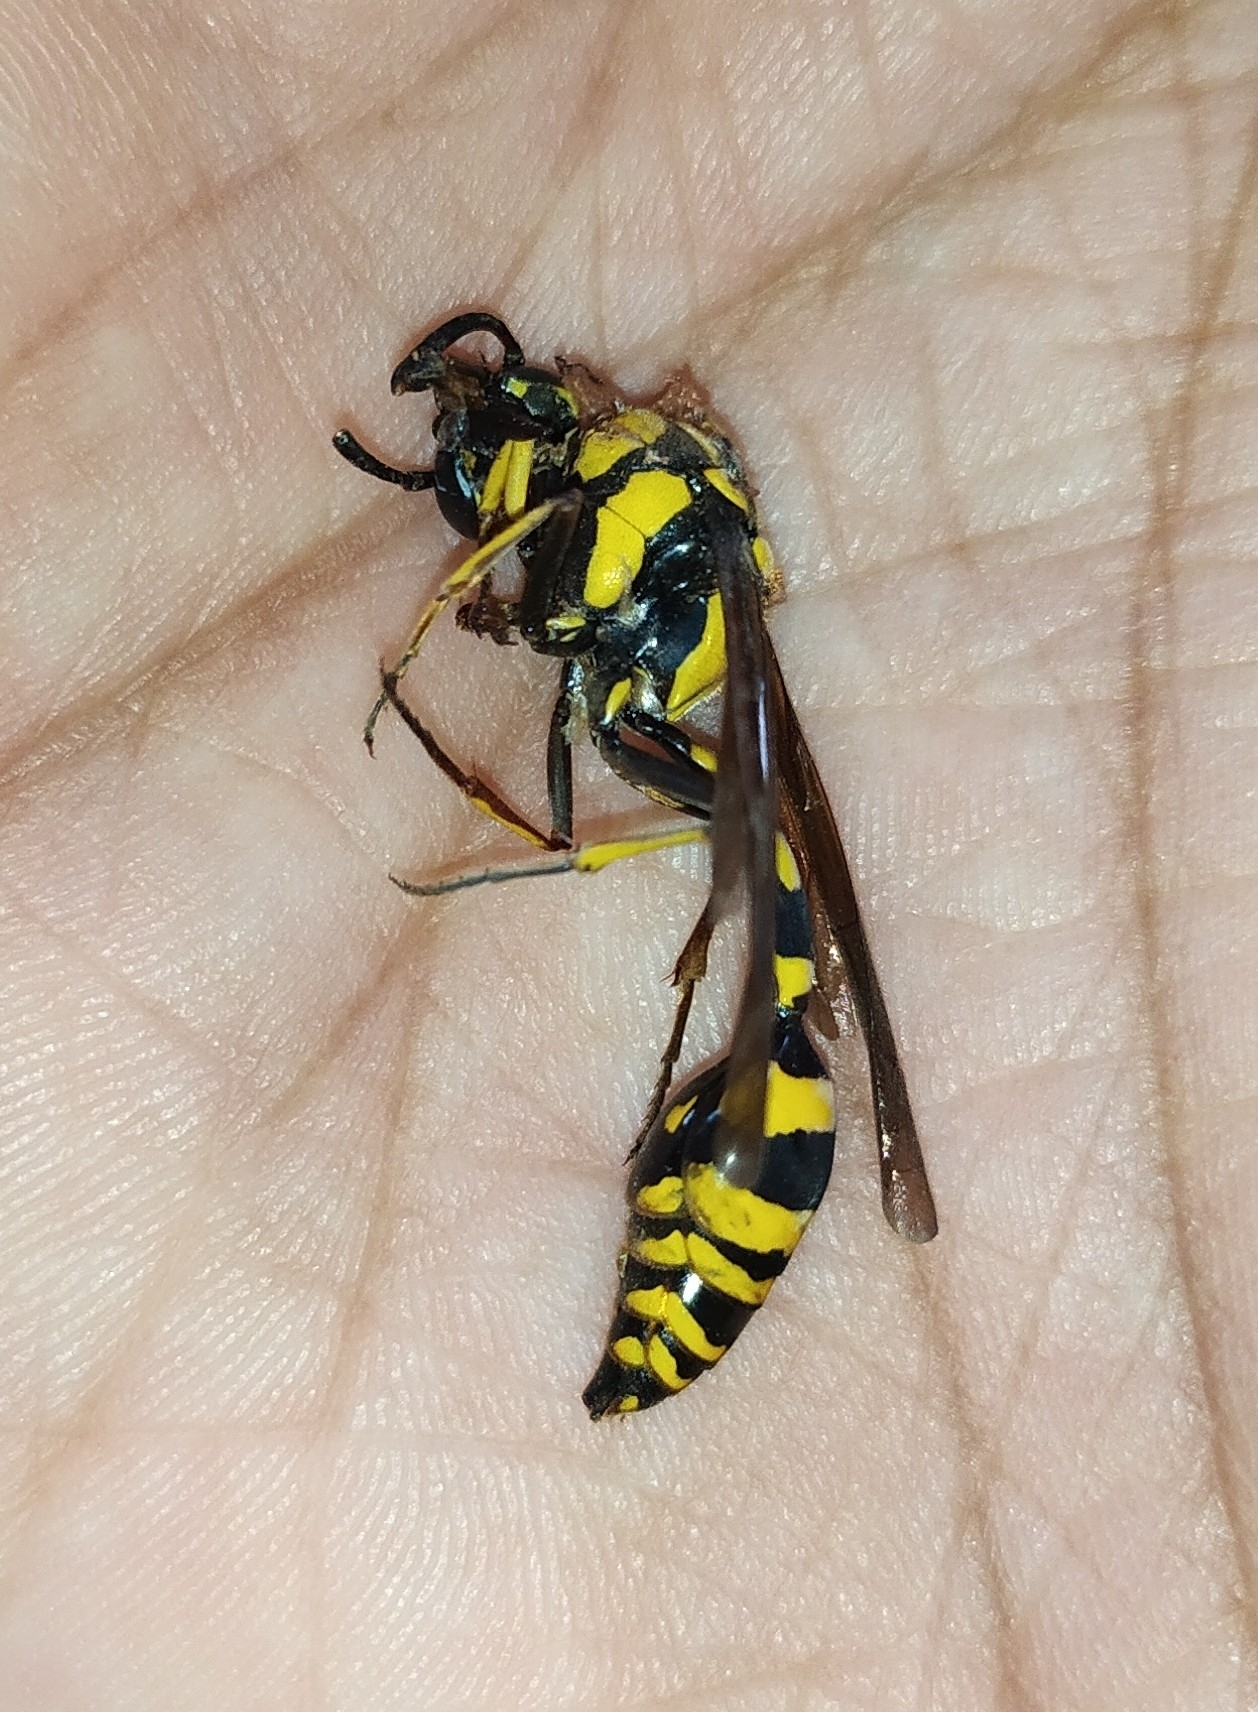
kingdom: Animalia
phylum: Arthropoda
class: Insecta
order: Hymenoptera
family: Eumenidae
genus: Phimenes
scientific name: Phimenes flavopictus
